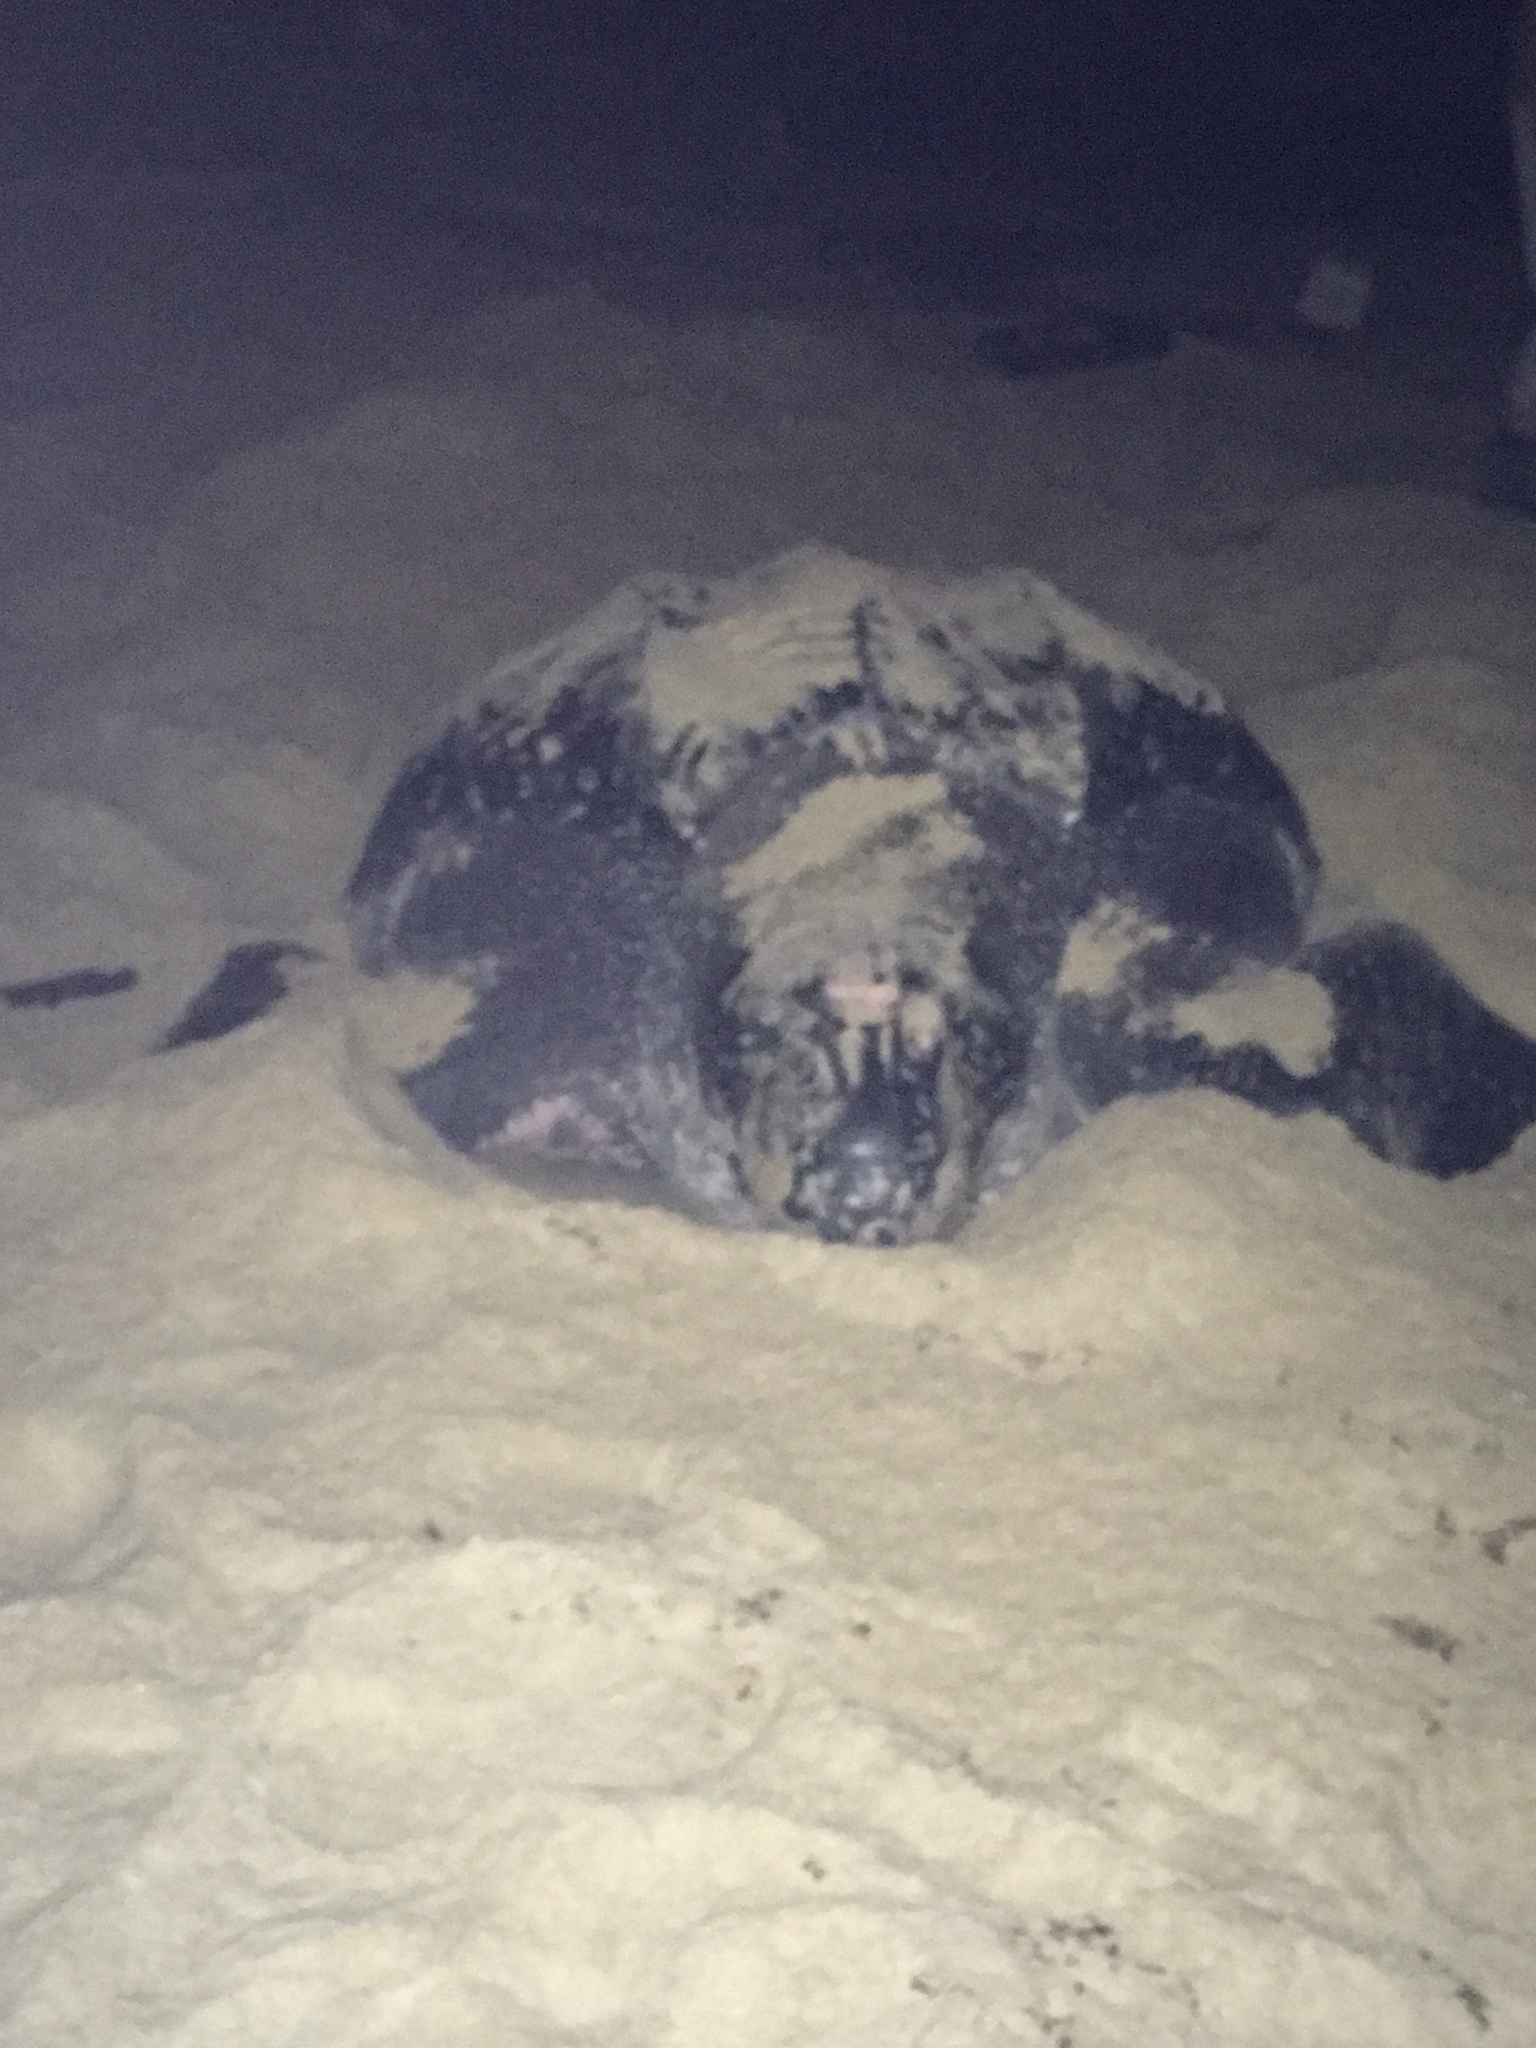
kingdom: Animalia
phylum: Chordata
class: Testudines
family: Dermochelyidae
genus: Dermochelys
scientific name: Dermochelys coriacea
